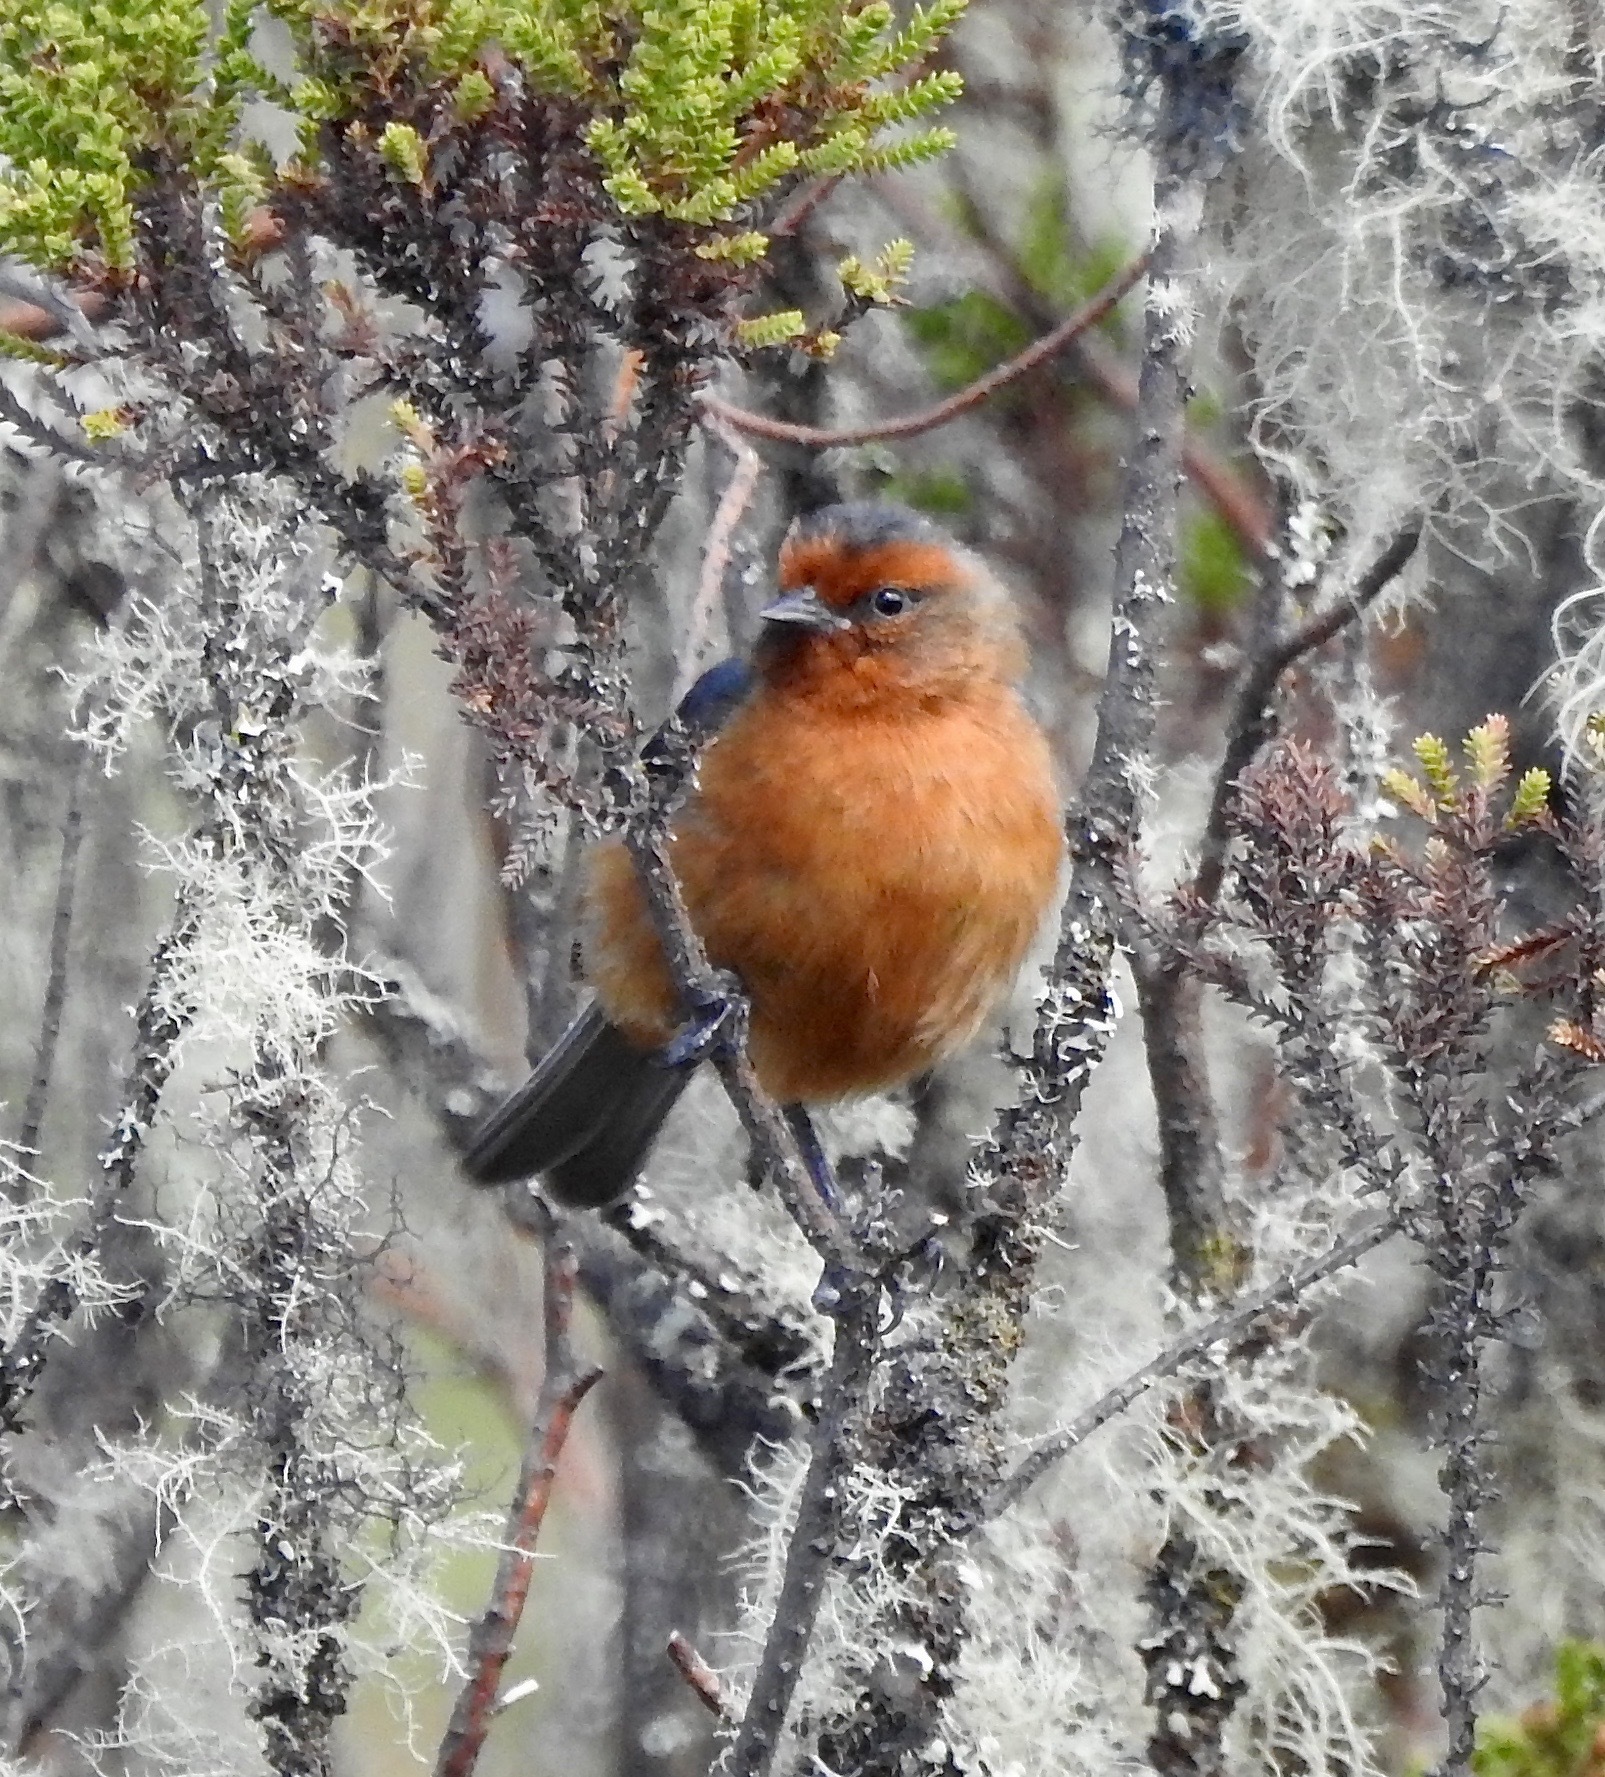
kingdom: Animalia
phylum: Chordata
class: Aves
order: Passeriformes
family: Thraupidae
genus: Conirostrum
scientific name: Conirostrum rufum
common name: Rufous-browed conebill
